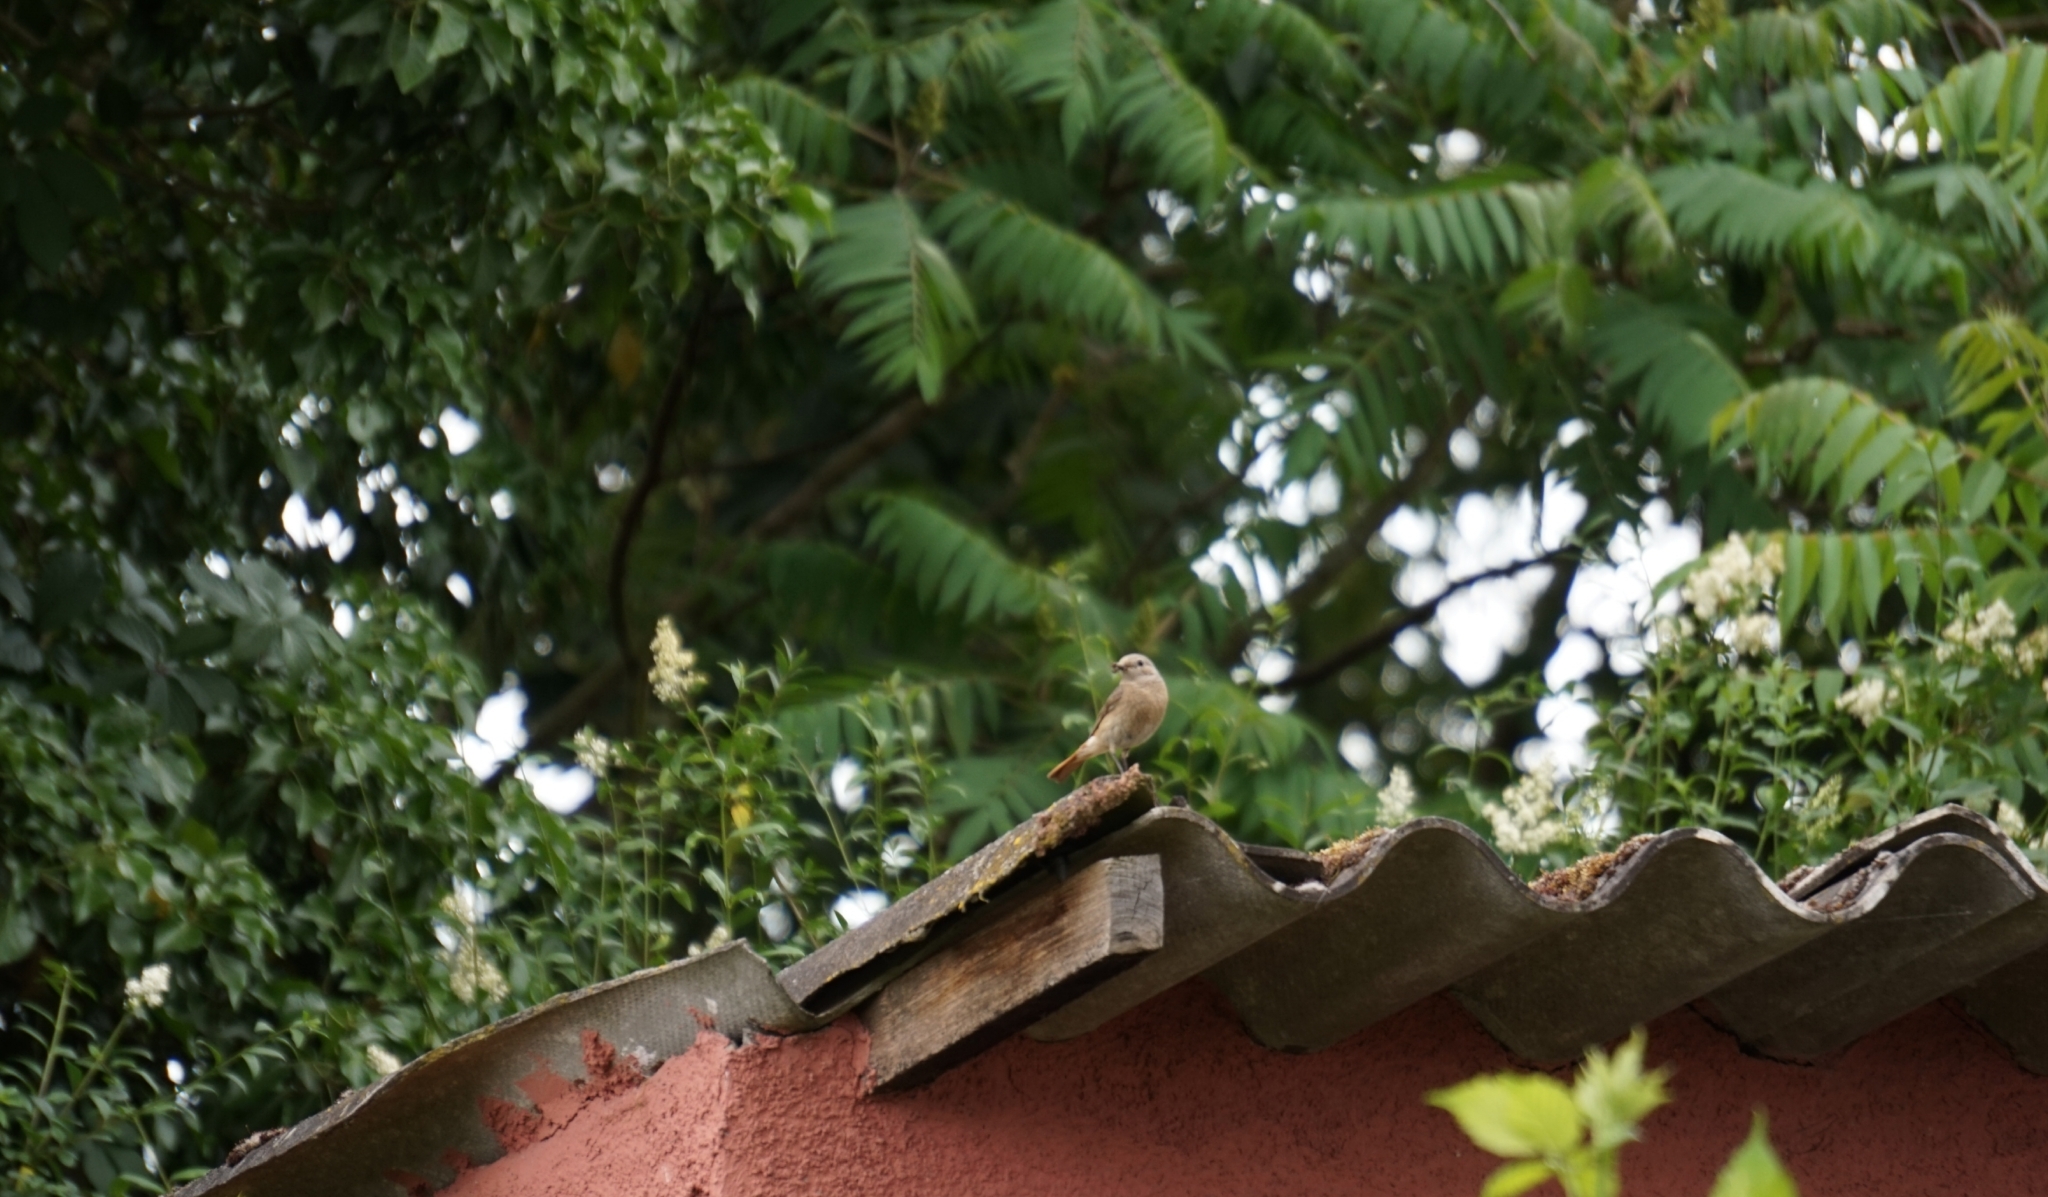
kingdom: Animalia
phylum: Chordata
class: Aves
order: Passeriformes
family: Muscicapidae
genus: Phoenicurus
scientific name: Phoenicurus phoenicurus
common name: Common redstart
